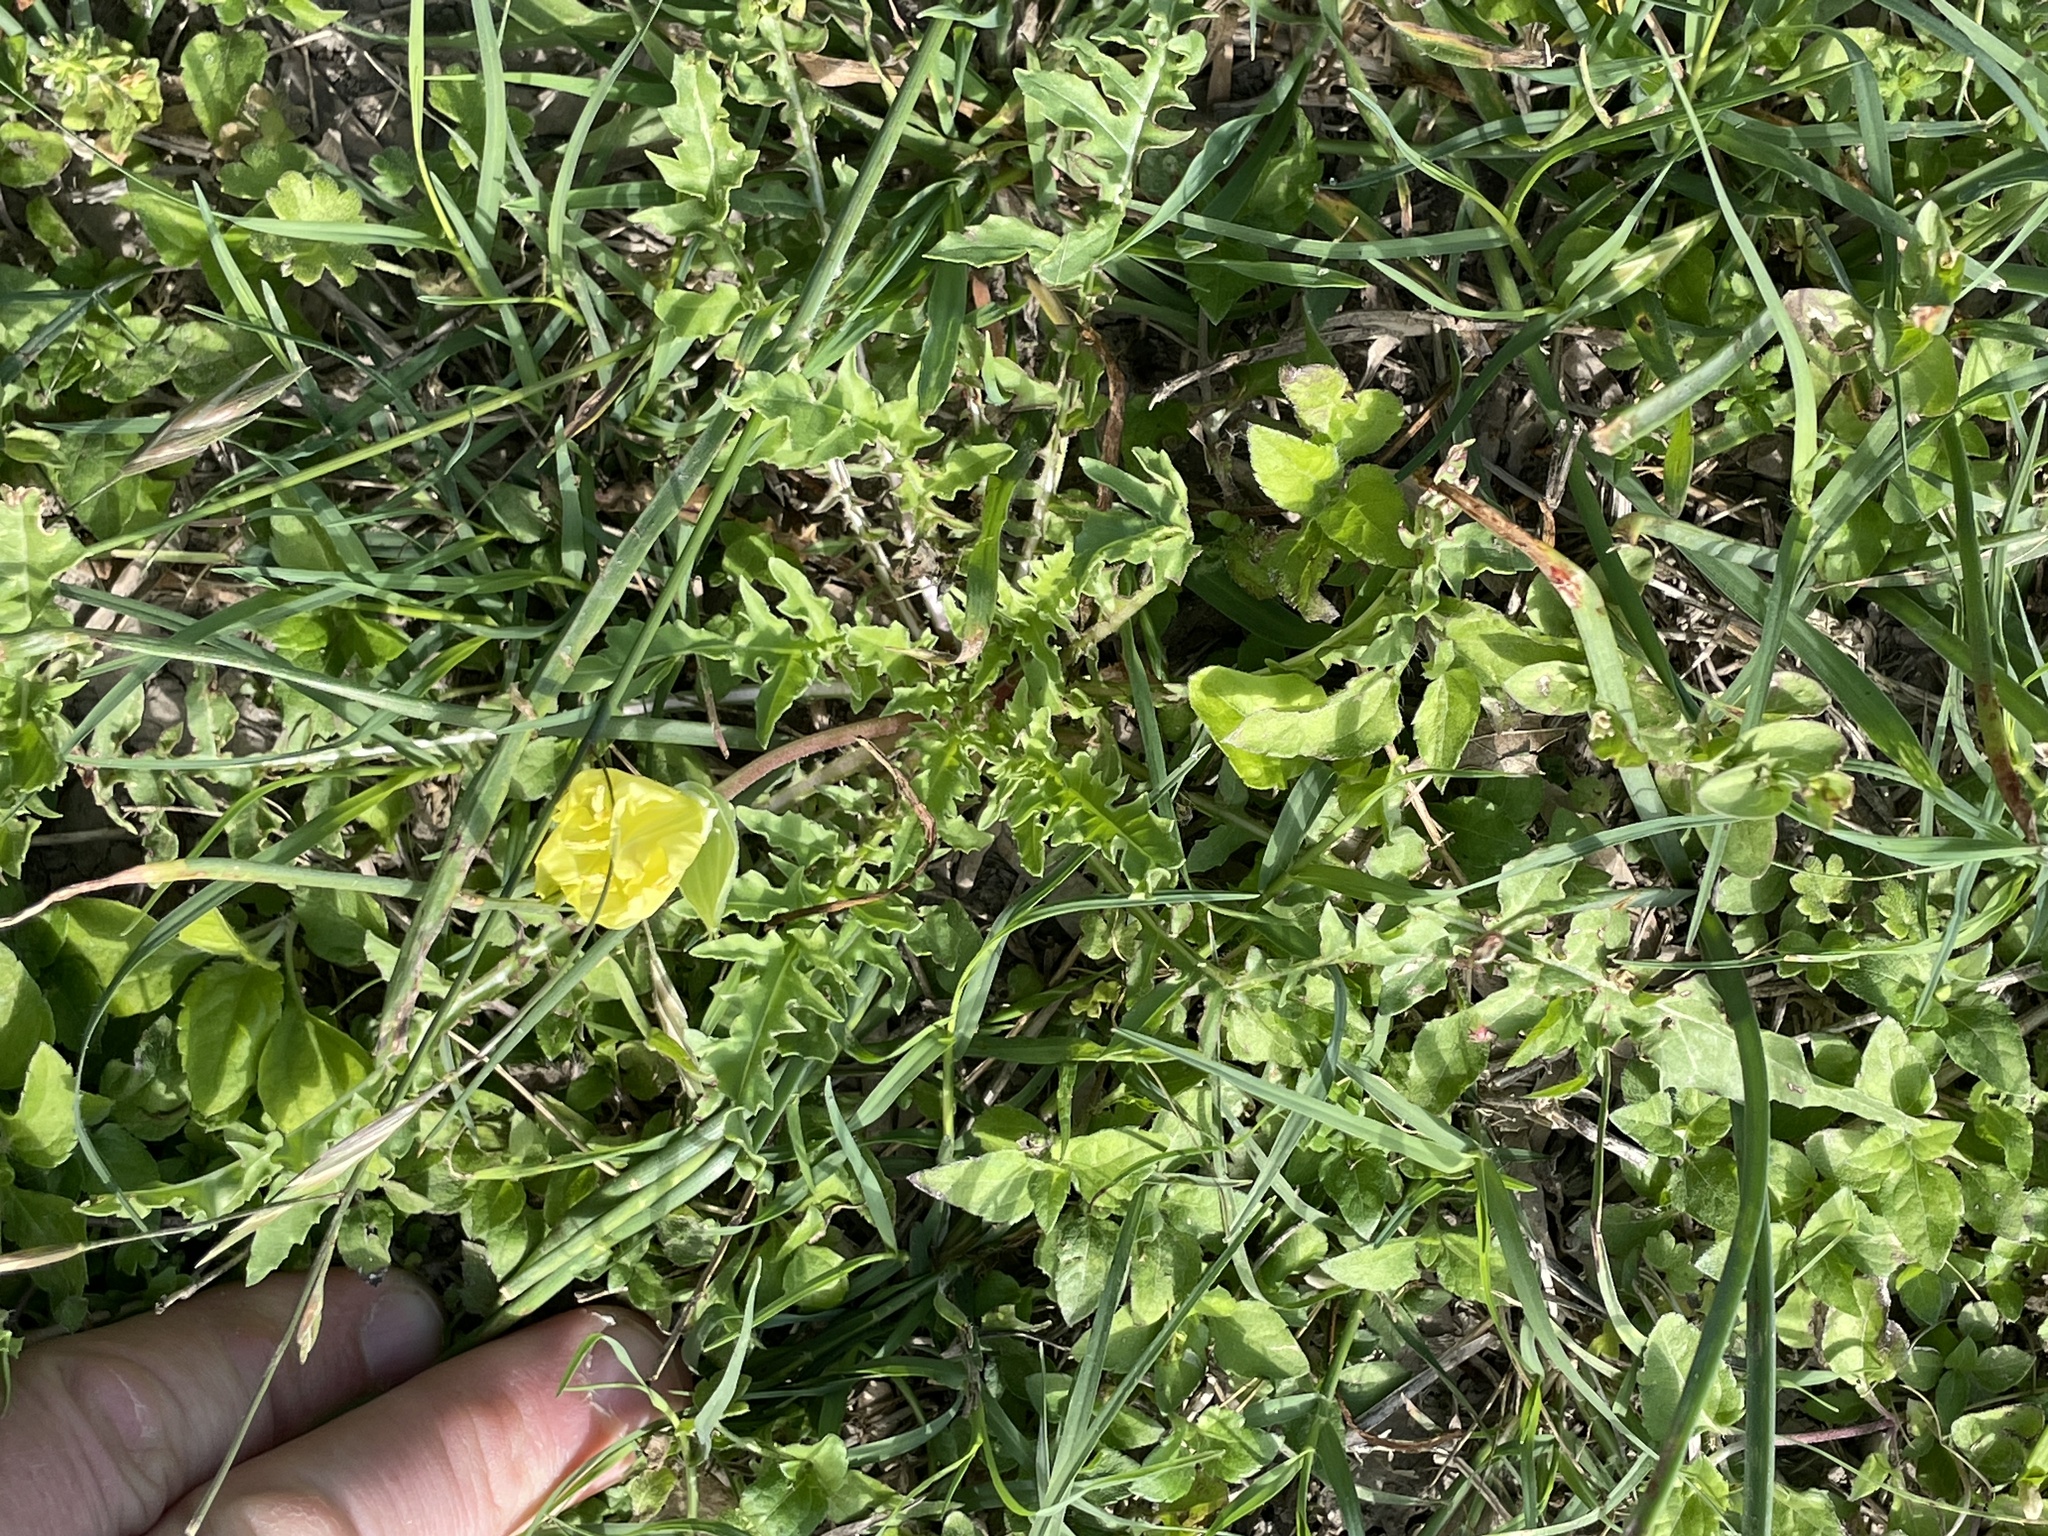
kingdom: Plantae
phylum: Tracheophyta
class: Magnoliopsida
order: Myrtales
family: Onagraceae
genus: Oenothera
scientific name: Oenothera triloba
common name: Sessile evening-primrose
